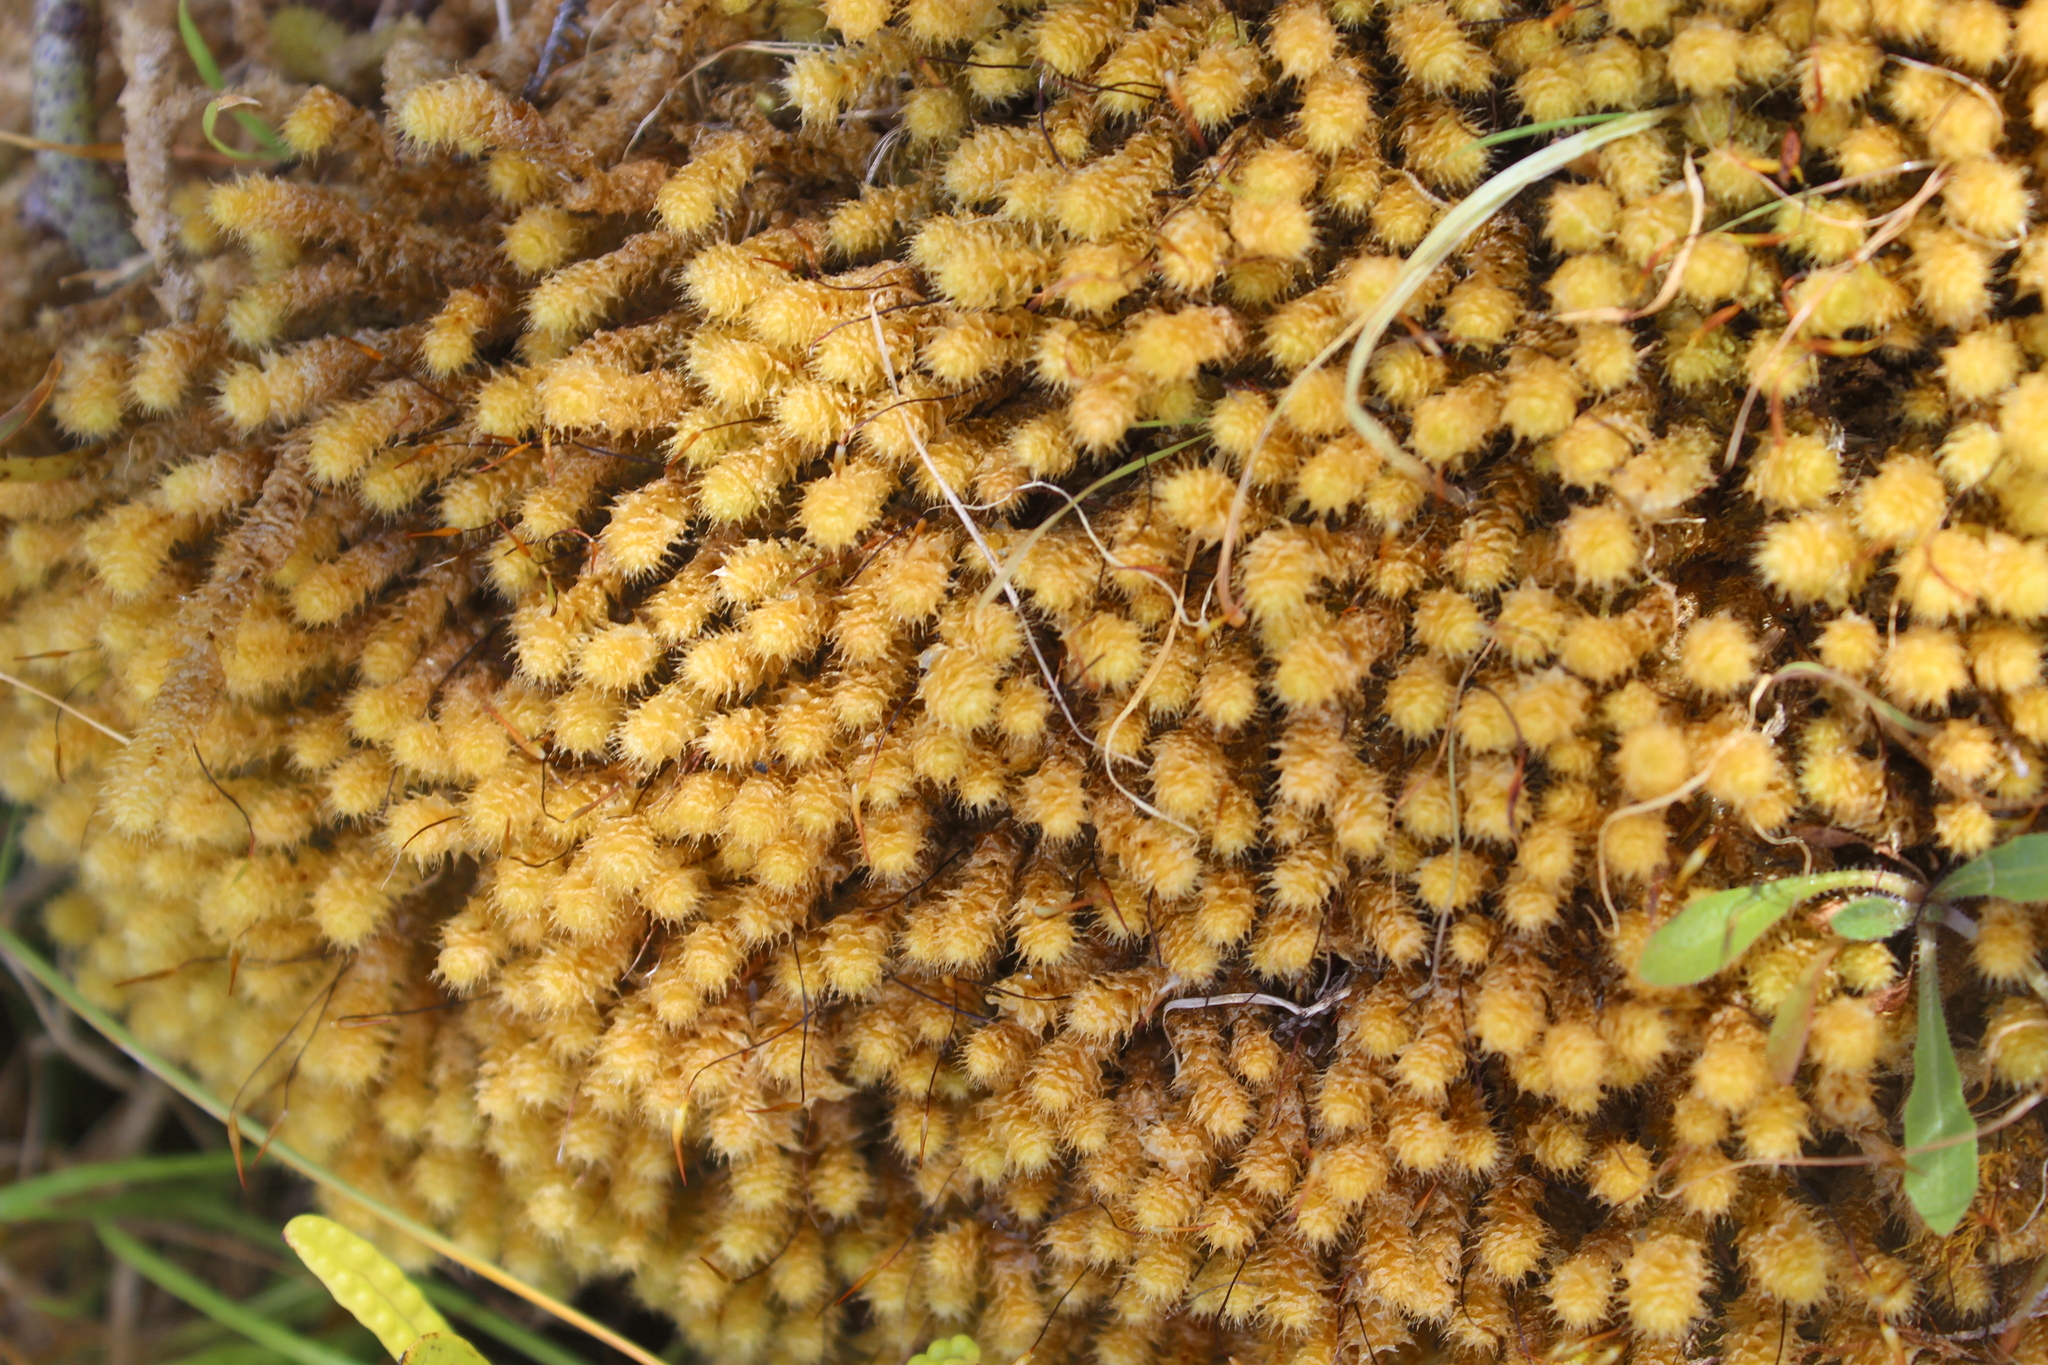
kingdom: Plantae
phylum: Bryophyta
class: Bryopsida
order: Ptychomniales
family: Ptychomniaceae
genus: Ptychomnion
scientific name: Ptychomnion aciculare
